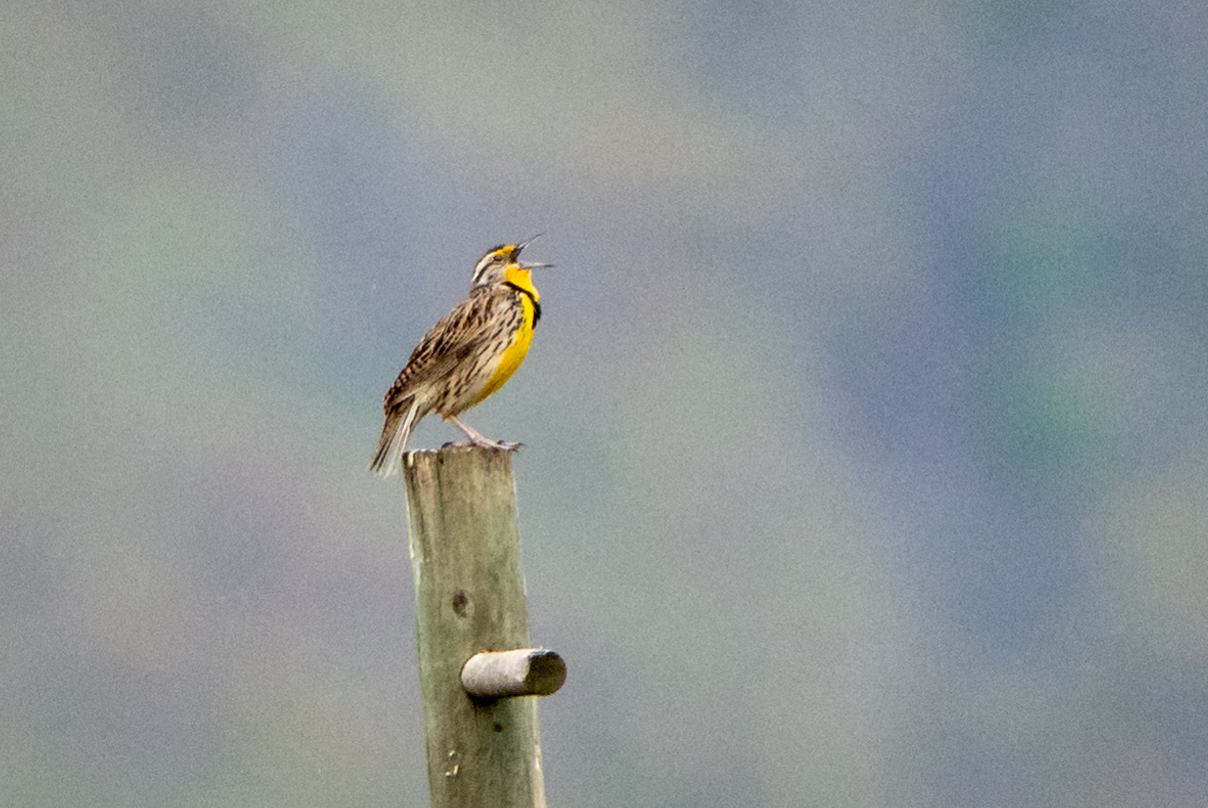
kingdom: Animalia
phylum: Chordata
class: Aves
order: Passeriformes
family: Icteridae
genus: Sturnella
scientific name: Sturnella neglecta
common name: Western meadowlark
